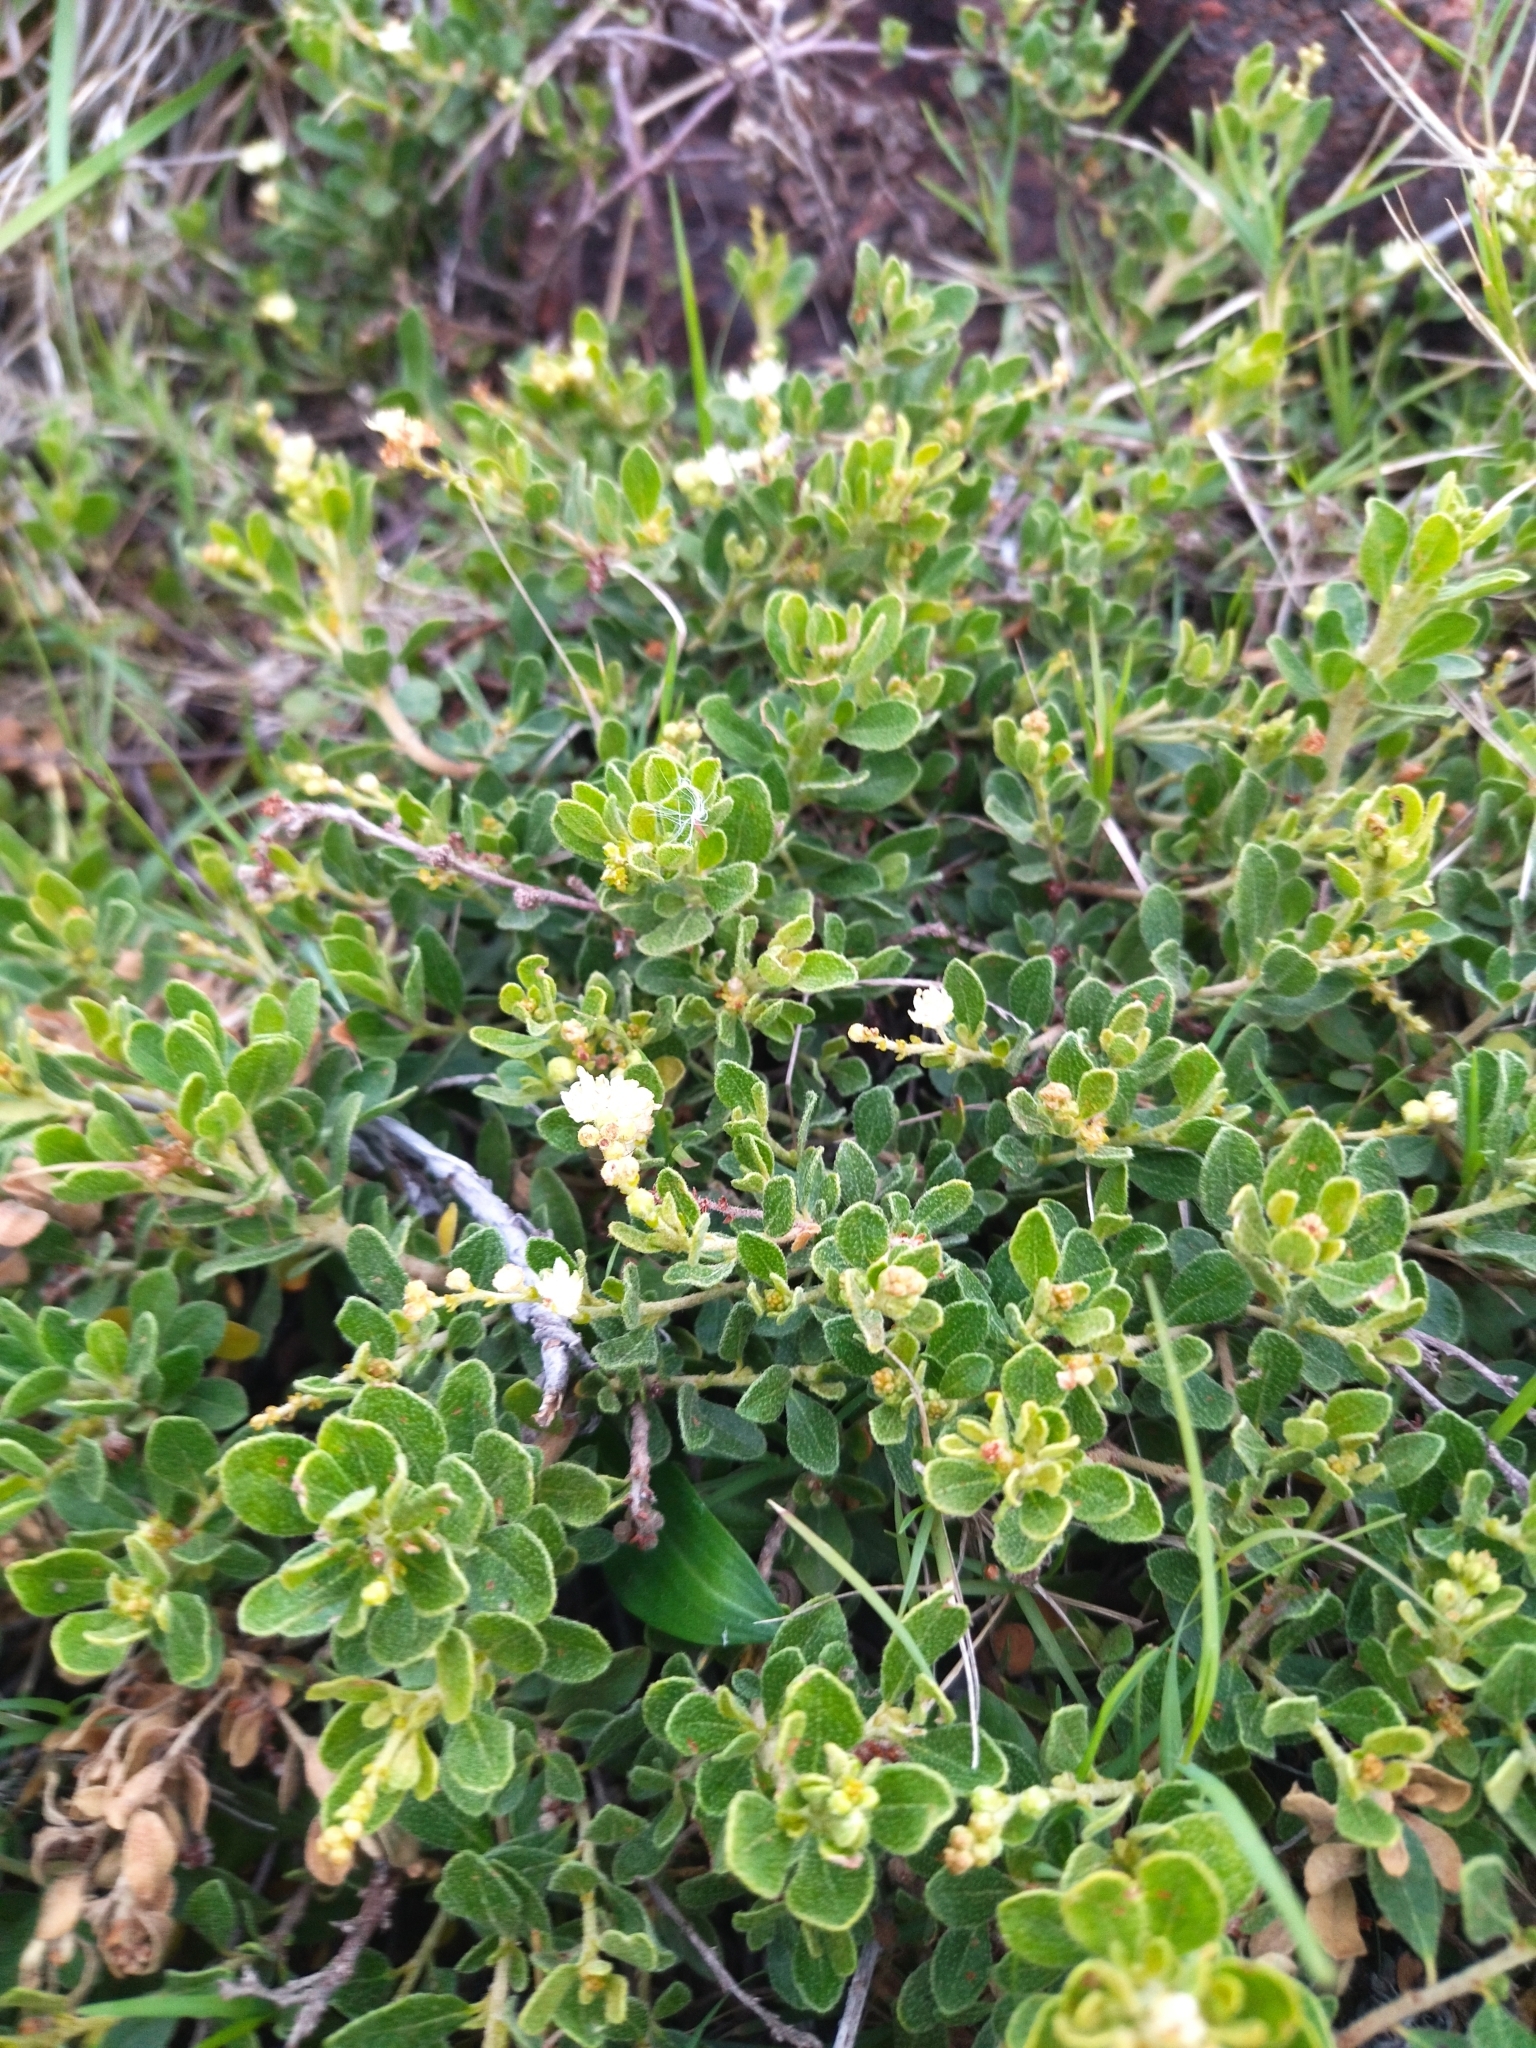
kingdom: Plantae
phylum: Tracheophyta
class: Magnoliopsida
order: Malpighiales
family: Euphorbiaceae
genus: Croton
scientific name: Croton nitrariifolius
